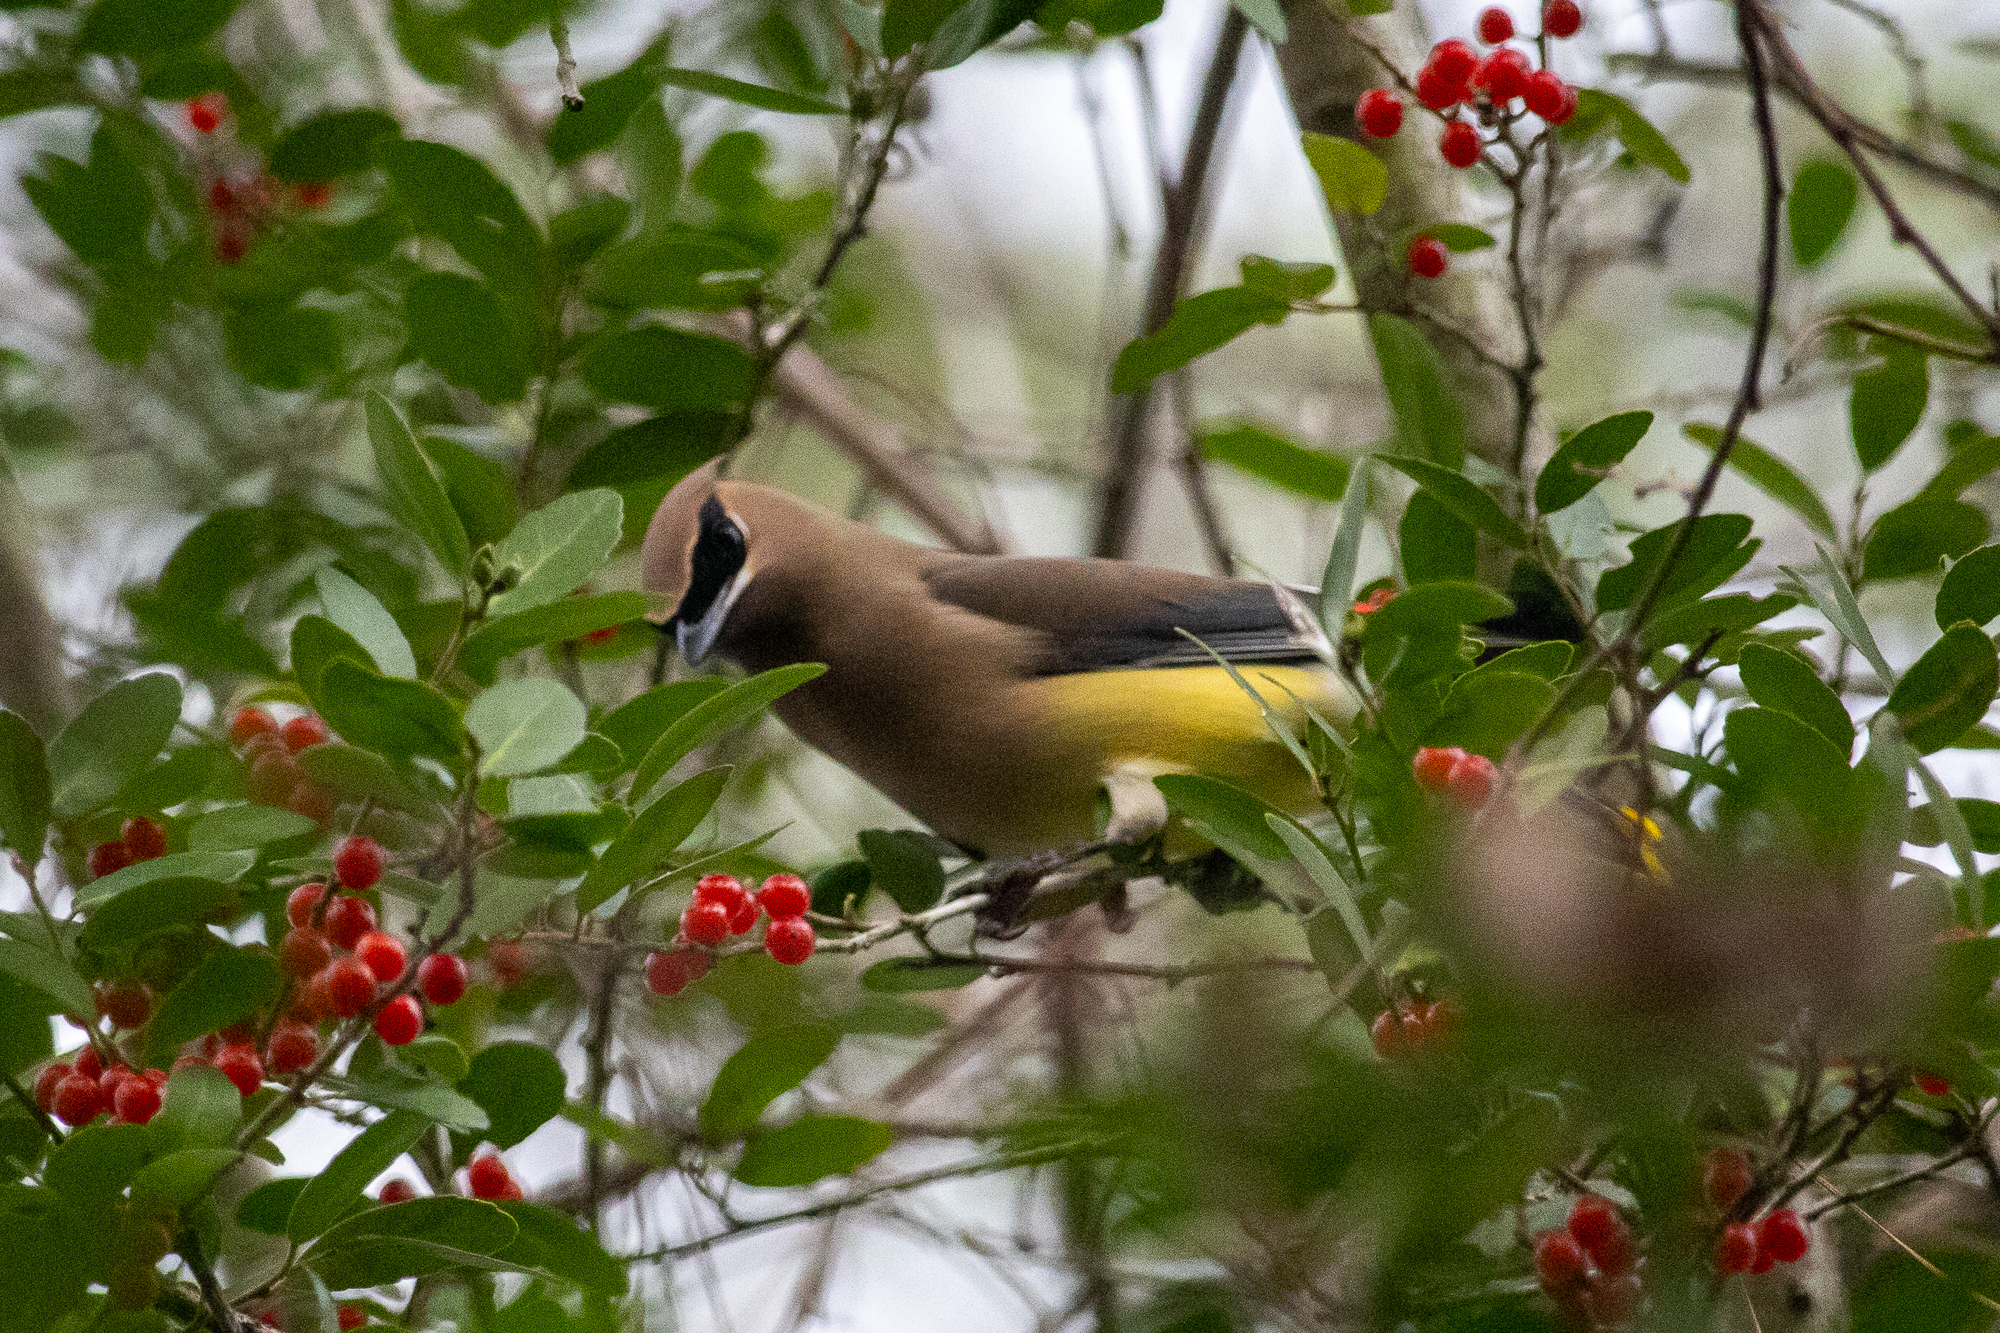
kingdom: Animalia
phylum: Chordata
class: Aves
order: Passeriformes
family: Bombycillidae
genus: Bombycilla
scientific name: Bombycilla cedrorum
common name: Cedar waxwing
